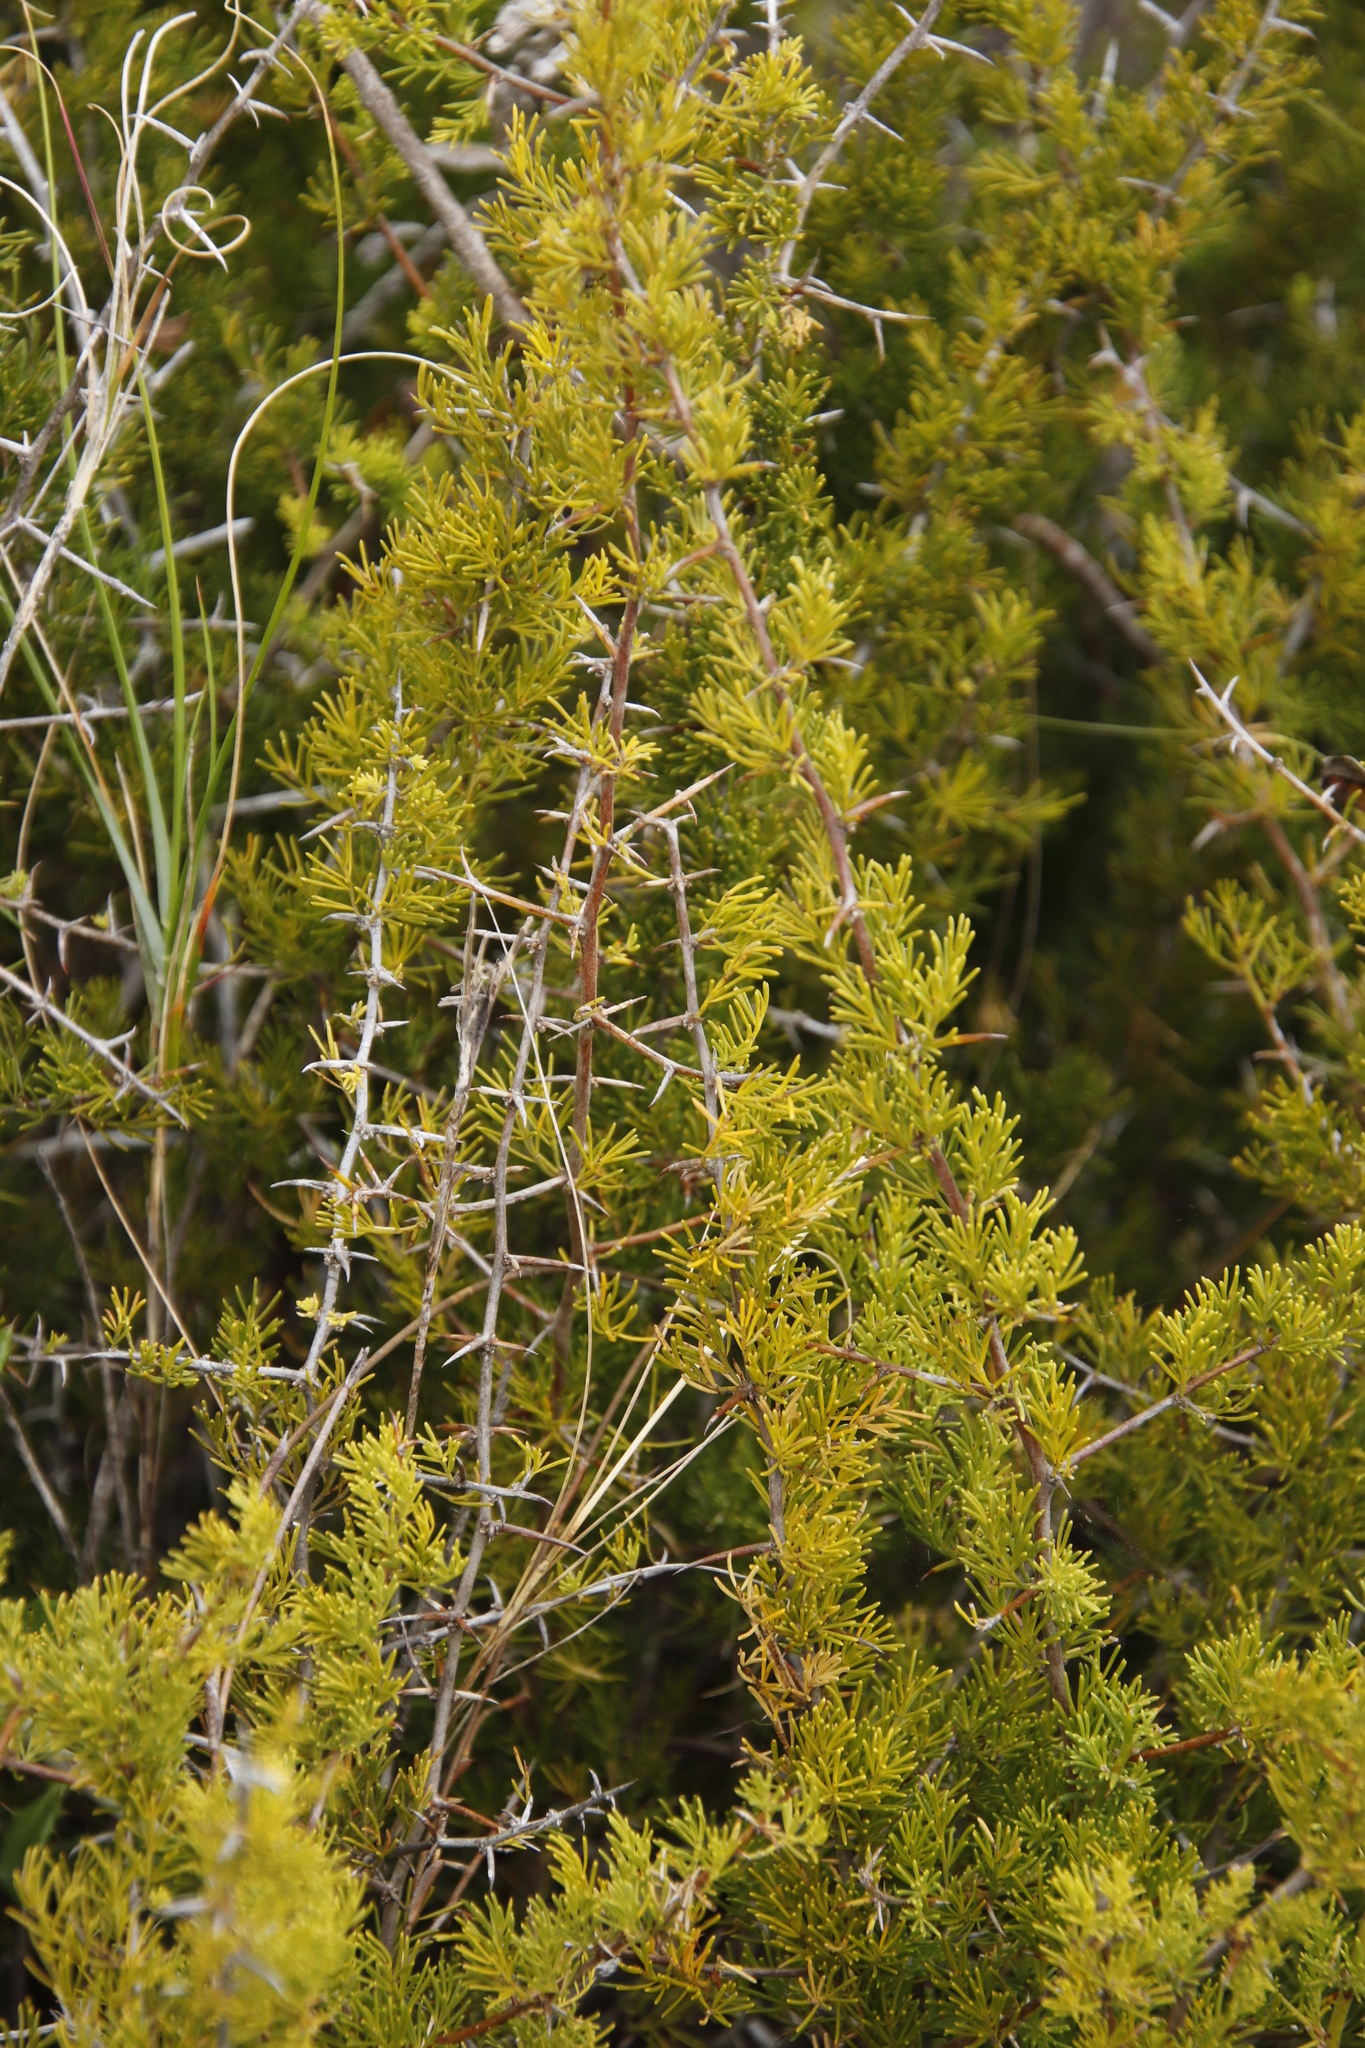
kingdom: Plantae
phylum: Tracheophyta
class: Liliopsida
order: Asparagales
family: Asparagaceae
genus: Asparagus
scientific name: Asparagus suaveolens
